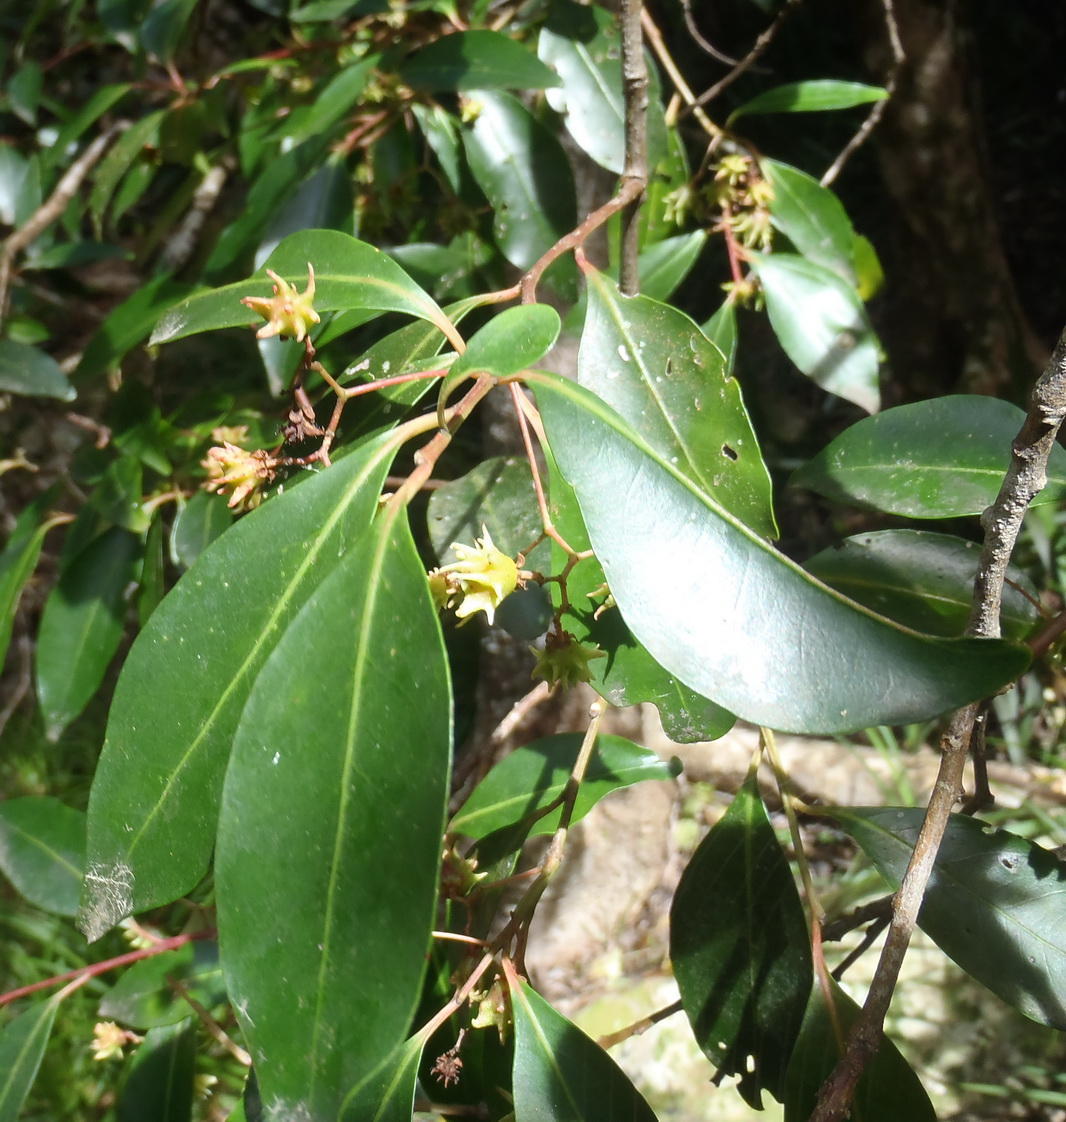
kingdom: Plantae
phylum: Tracheophyta
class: Magnoliopsida
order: Celastrales
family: Celastraceae
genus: Pterocelastrus
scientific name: Pterocelastrus rostratus
